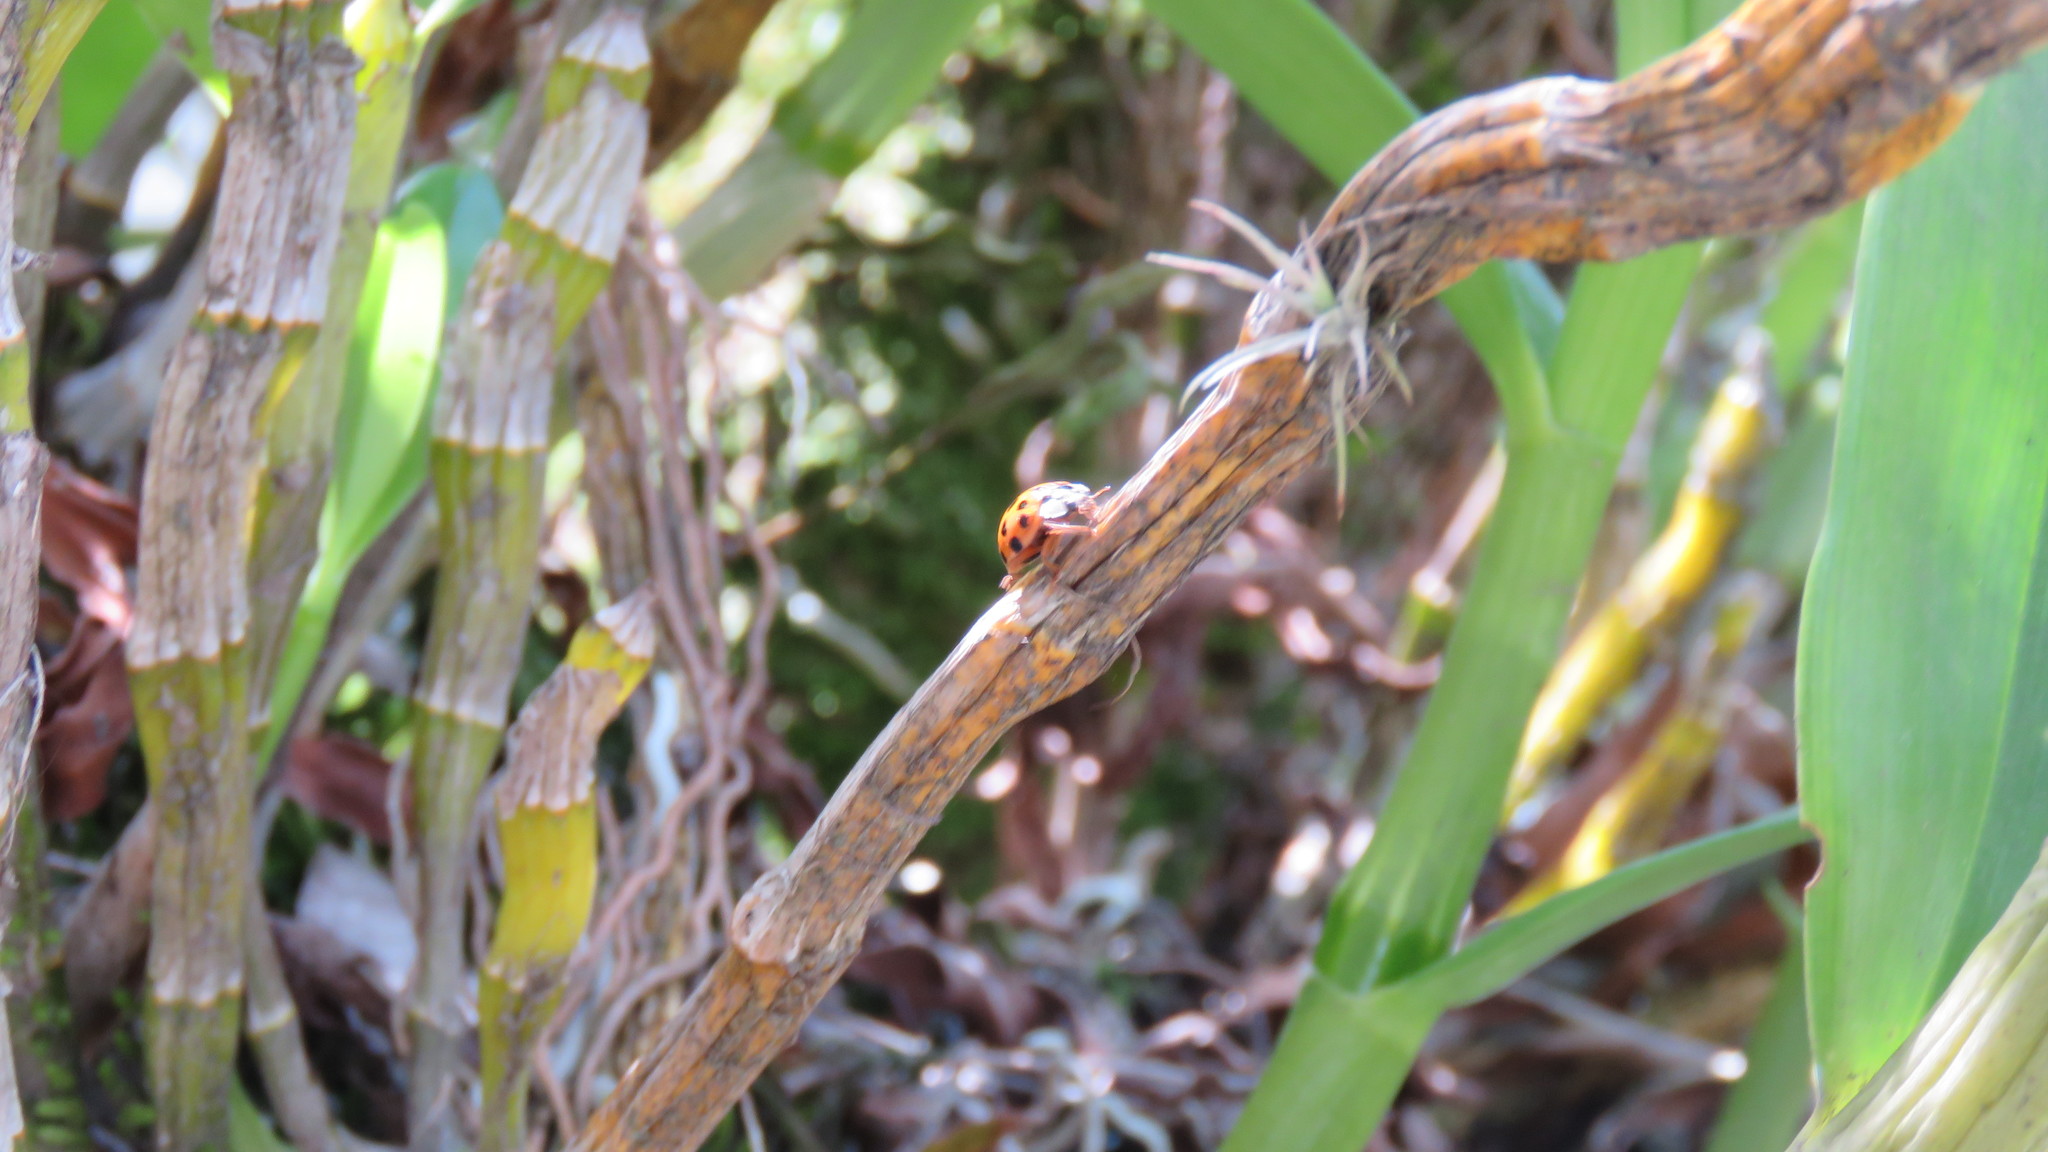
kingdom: Animalia
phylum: Arthropoda
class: Insecta
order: Coleoptera
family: Coccinellidae
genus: Harmonia
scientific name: Harmonia axyridis
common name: Harlequin ladybird
